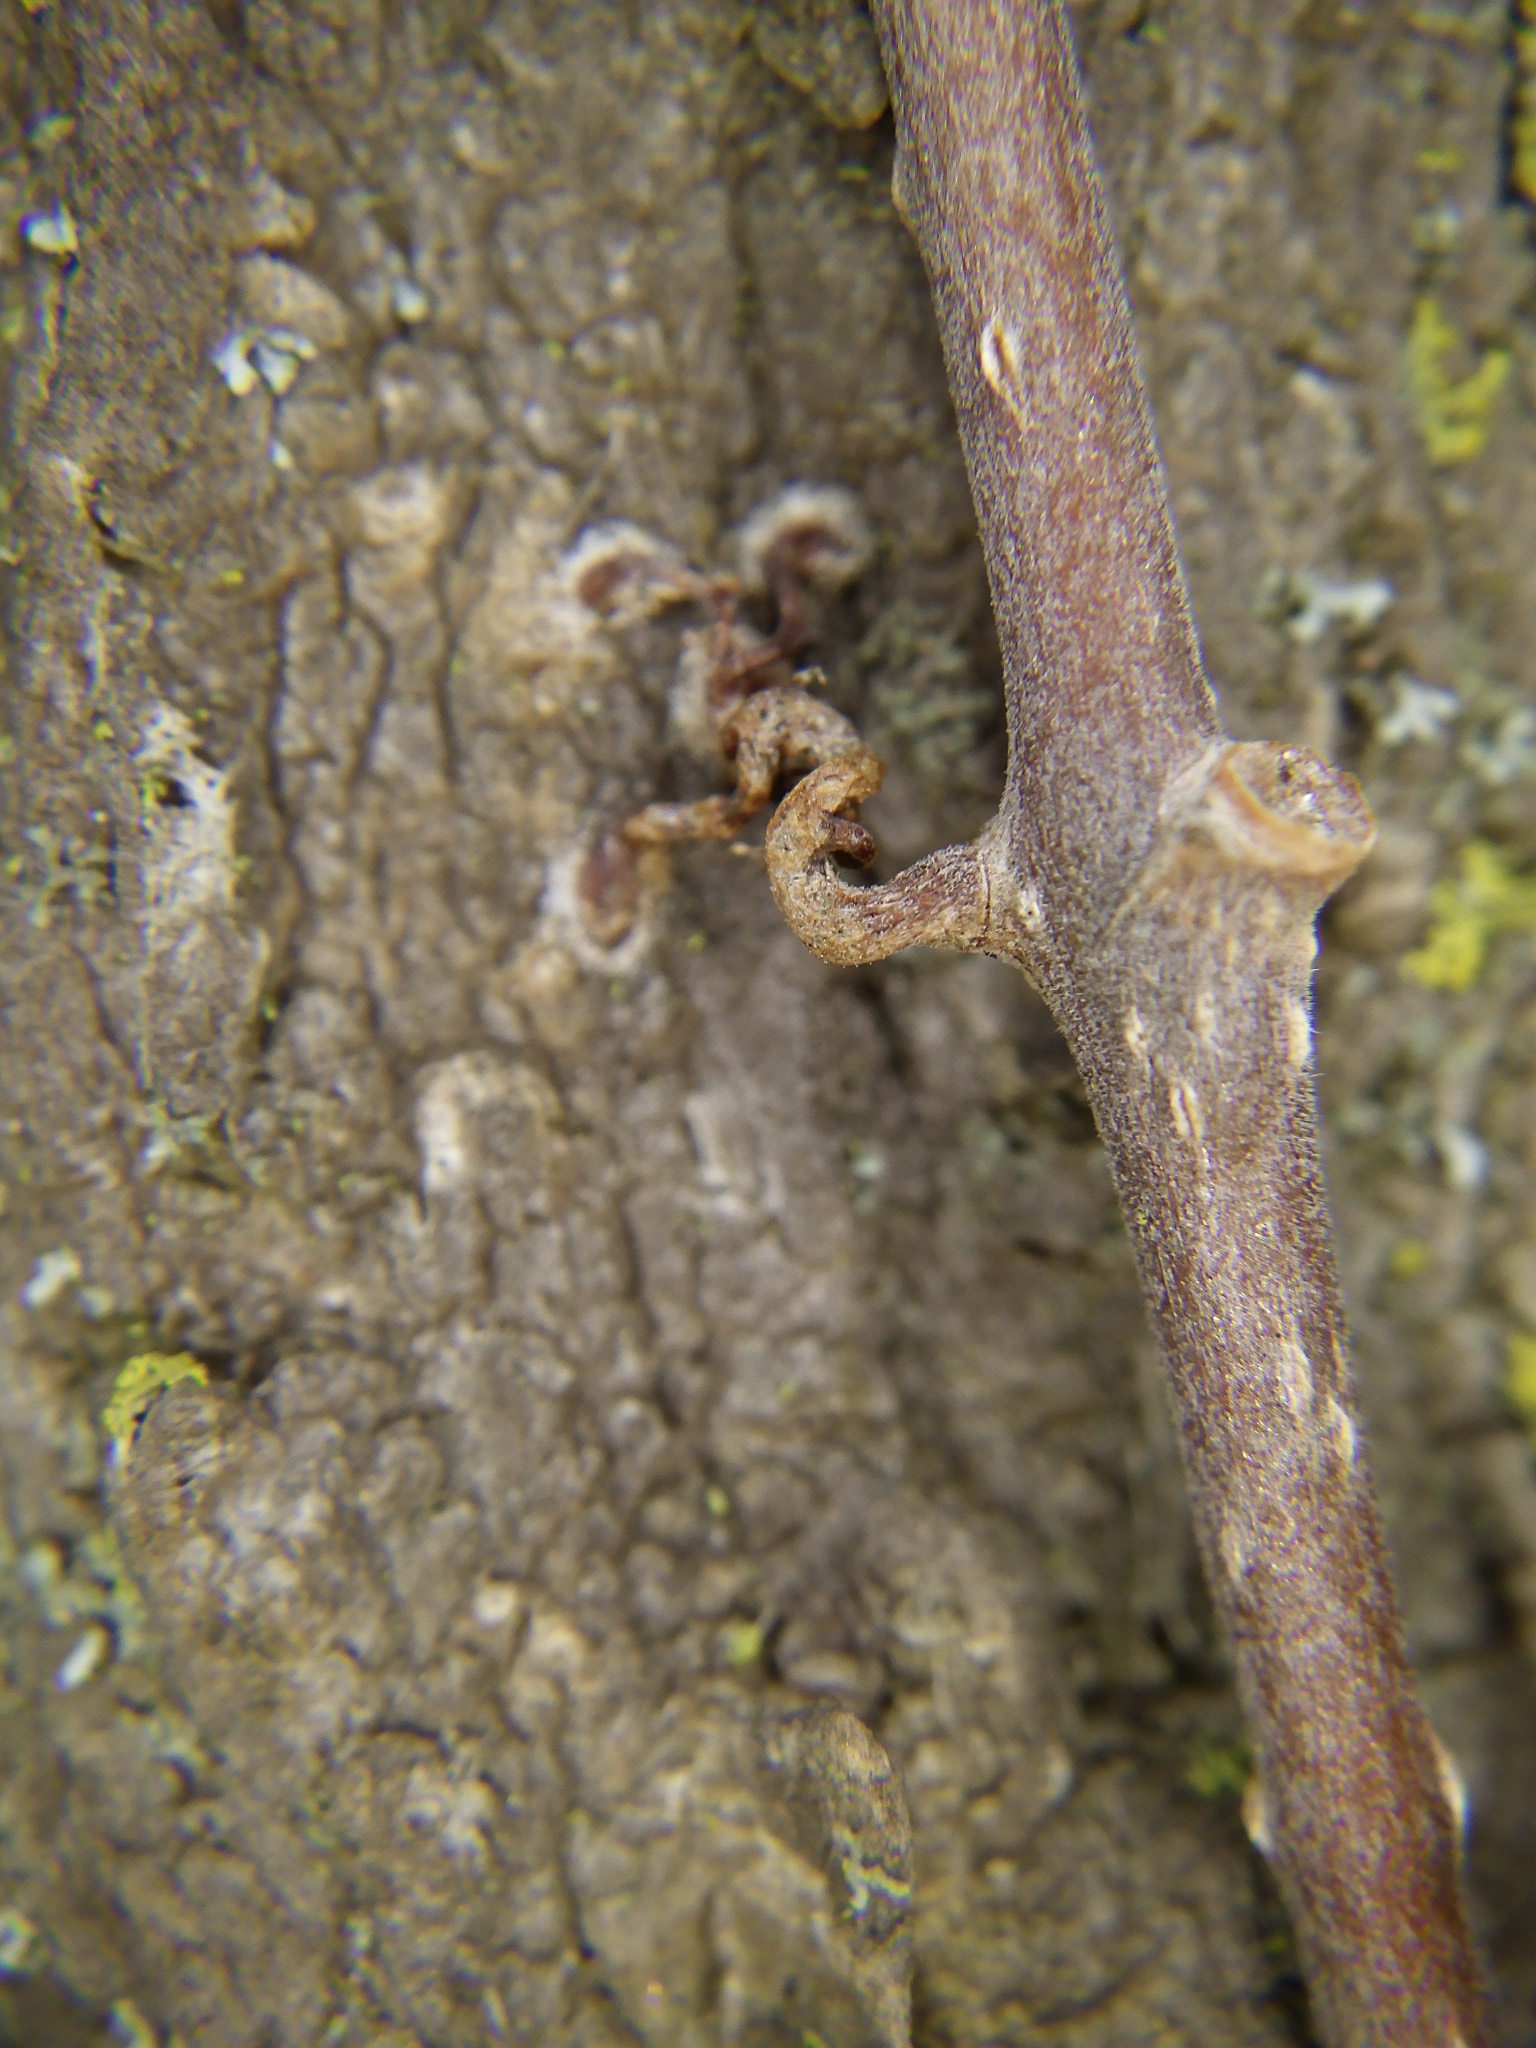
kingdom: Plantae
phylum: Tracheophyta
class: Magnoliopsida
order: Vitales
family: Vitaceae
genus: Parthenocissus
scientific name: Parthenocissus quinquefolia
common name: Virginia-creeper
